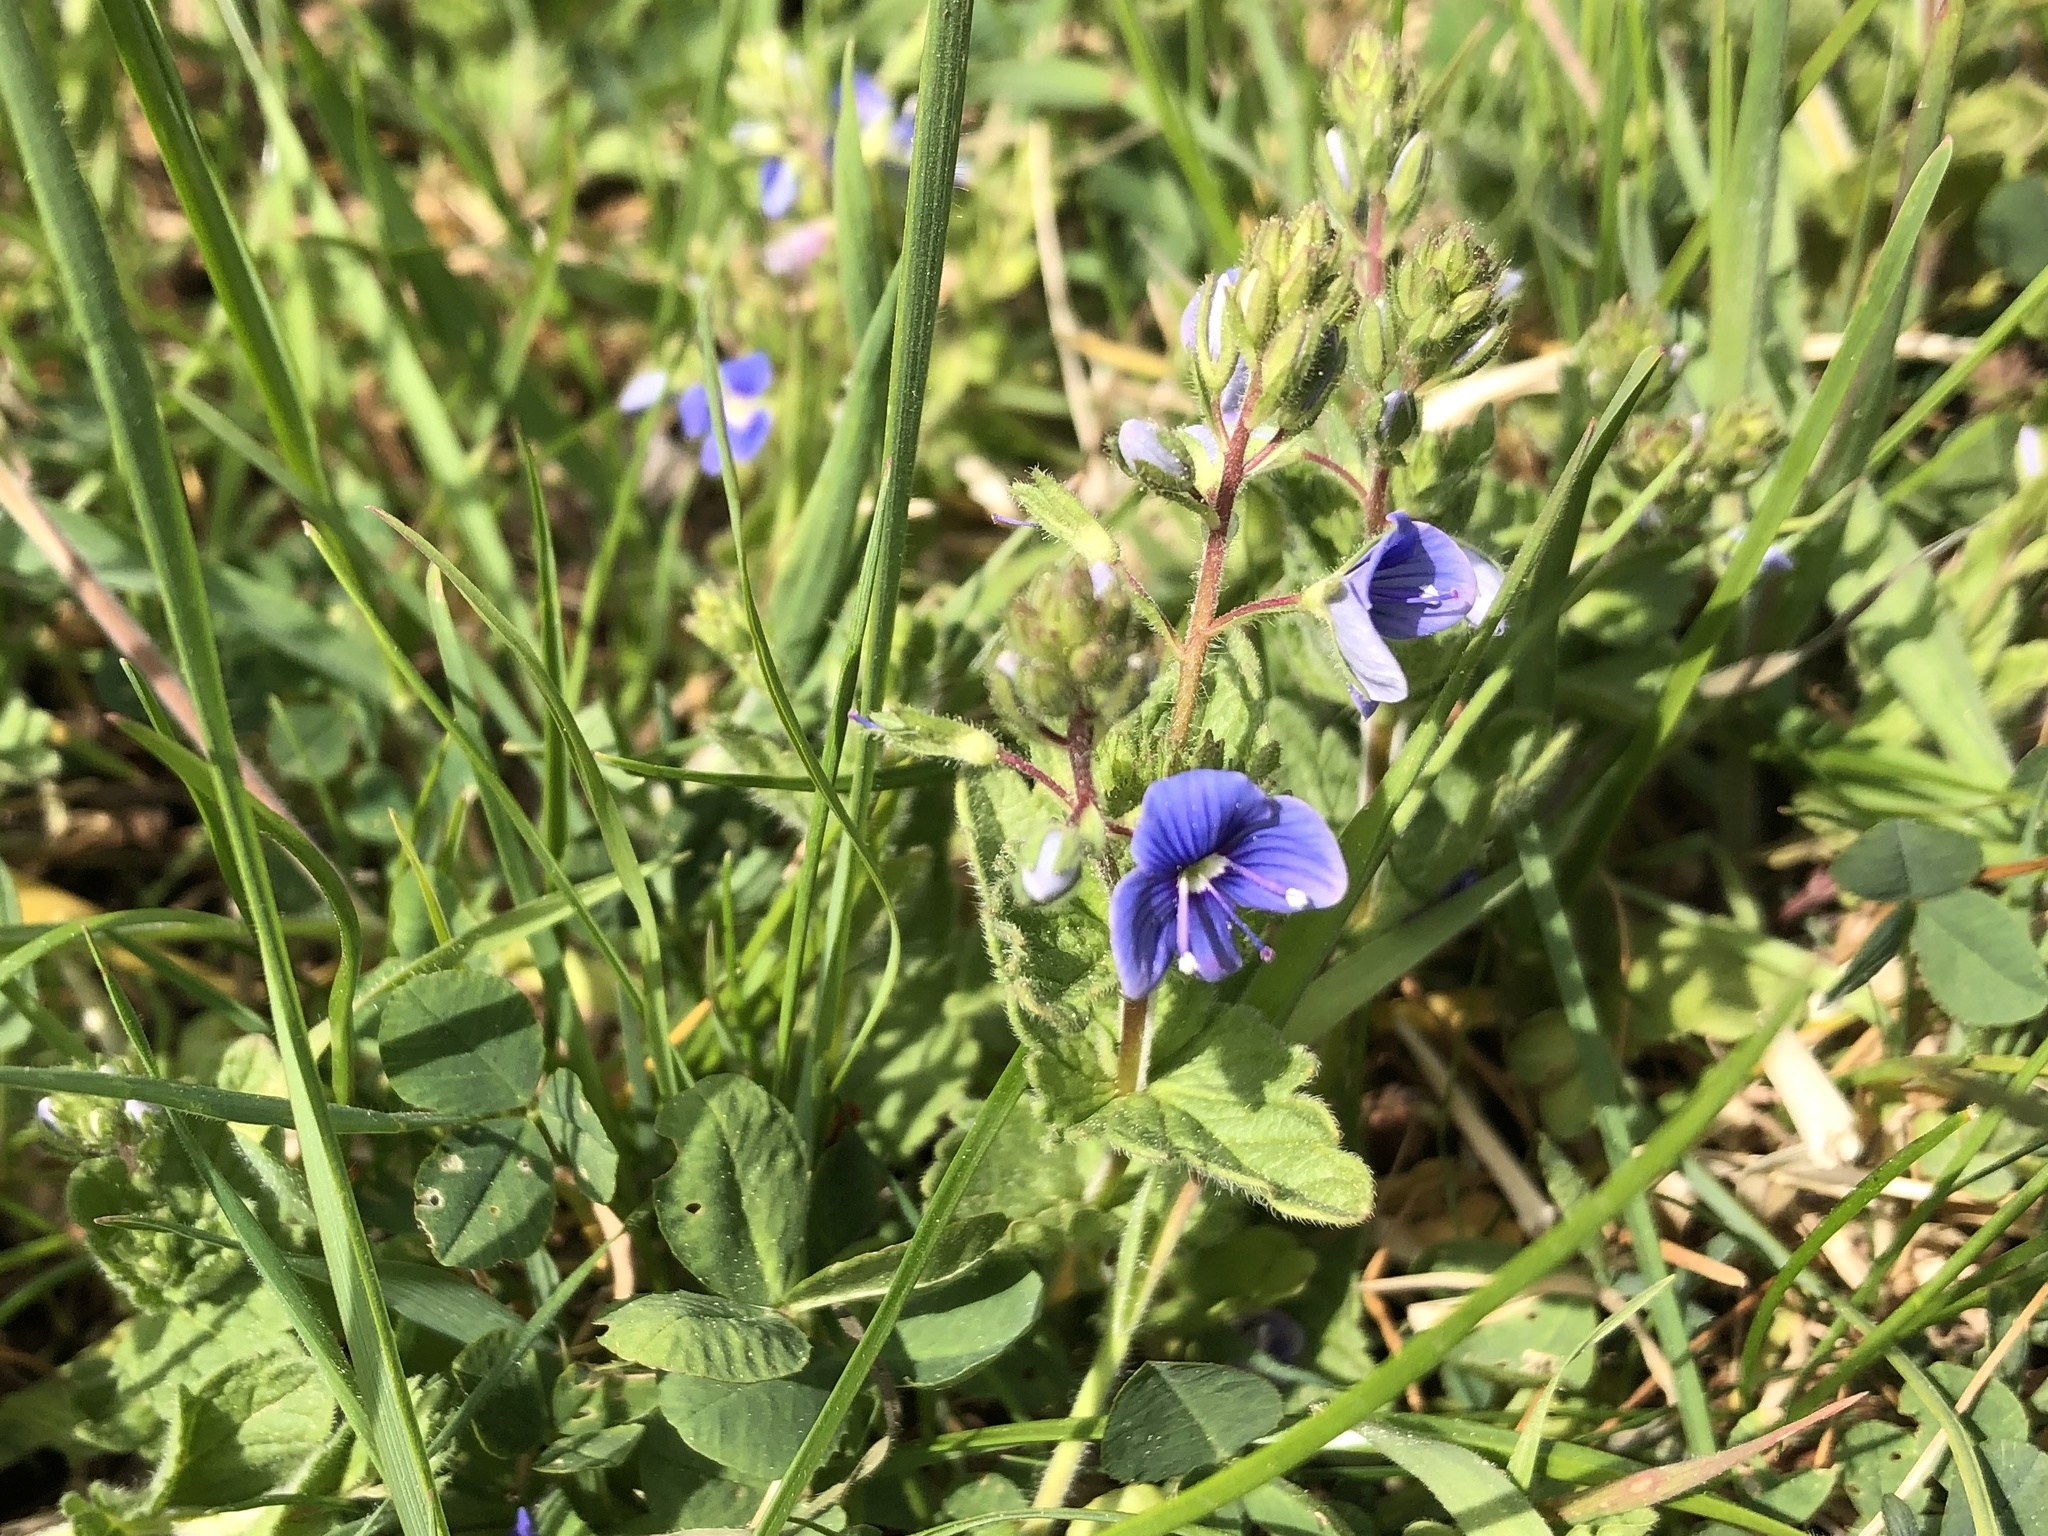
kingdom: Plantae
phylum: Tracheophyta
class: Magnoliopsida
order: Lamiales
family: Plantaginaceae
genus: Veronica
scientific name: Veronica chamaedrys
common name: Germander speedwell
